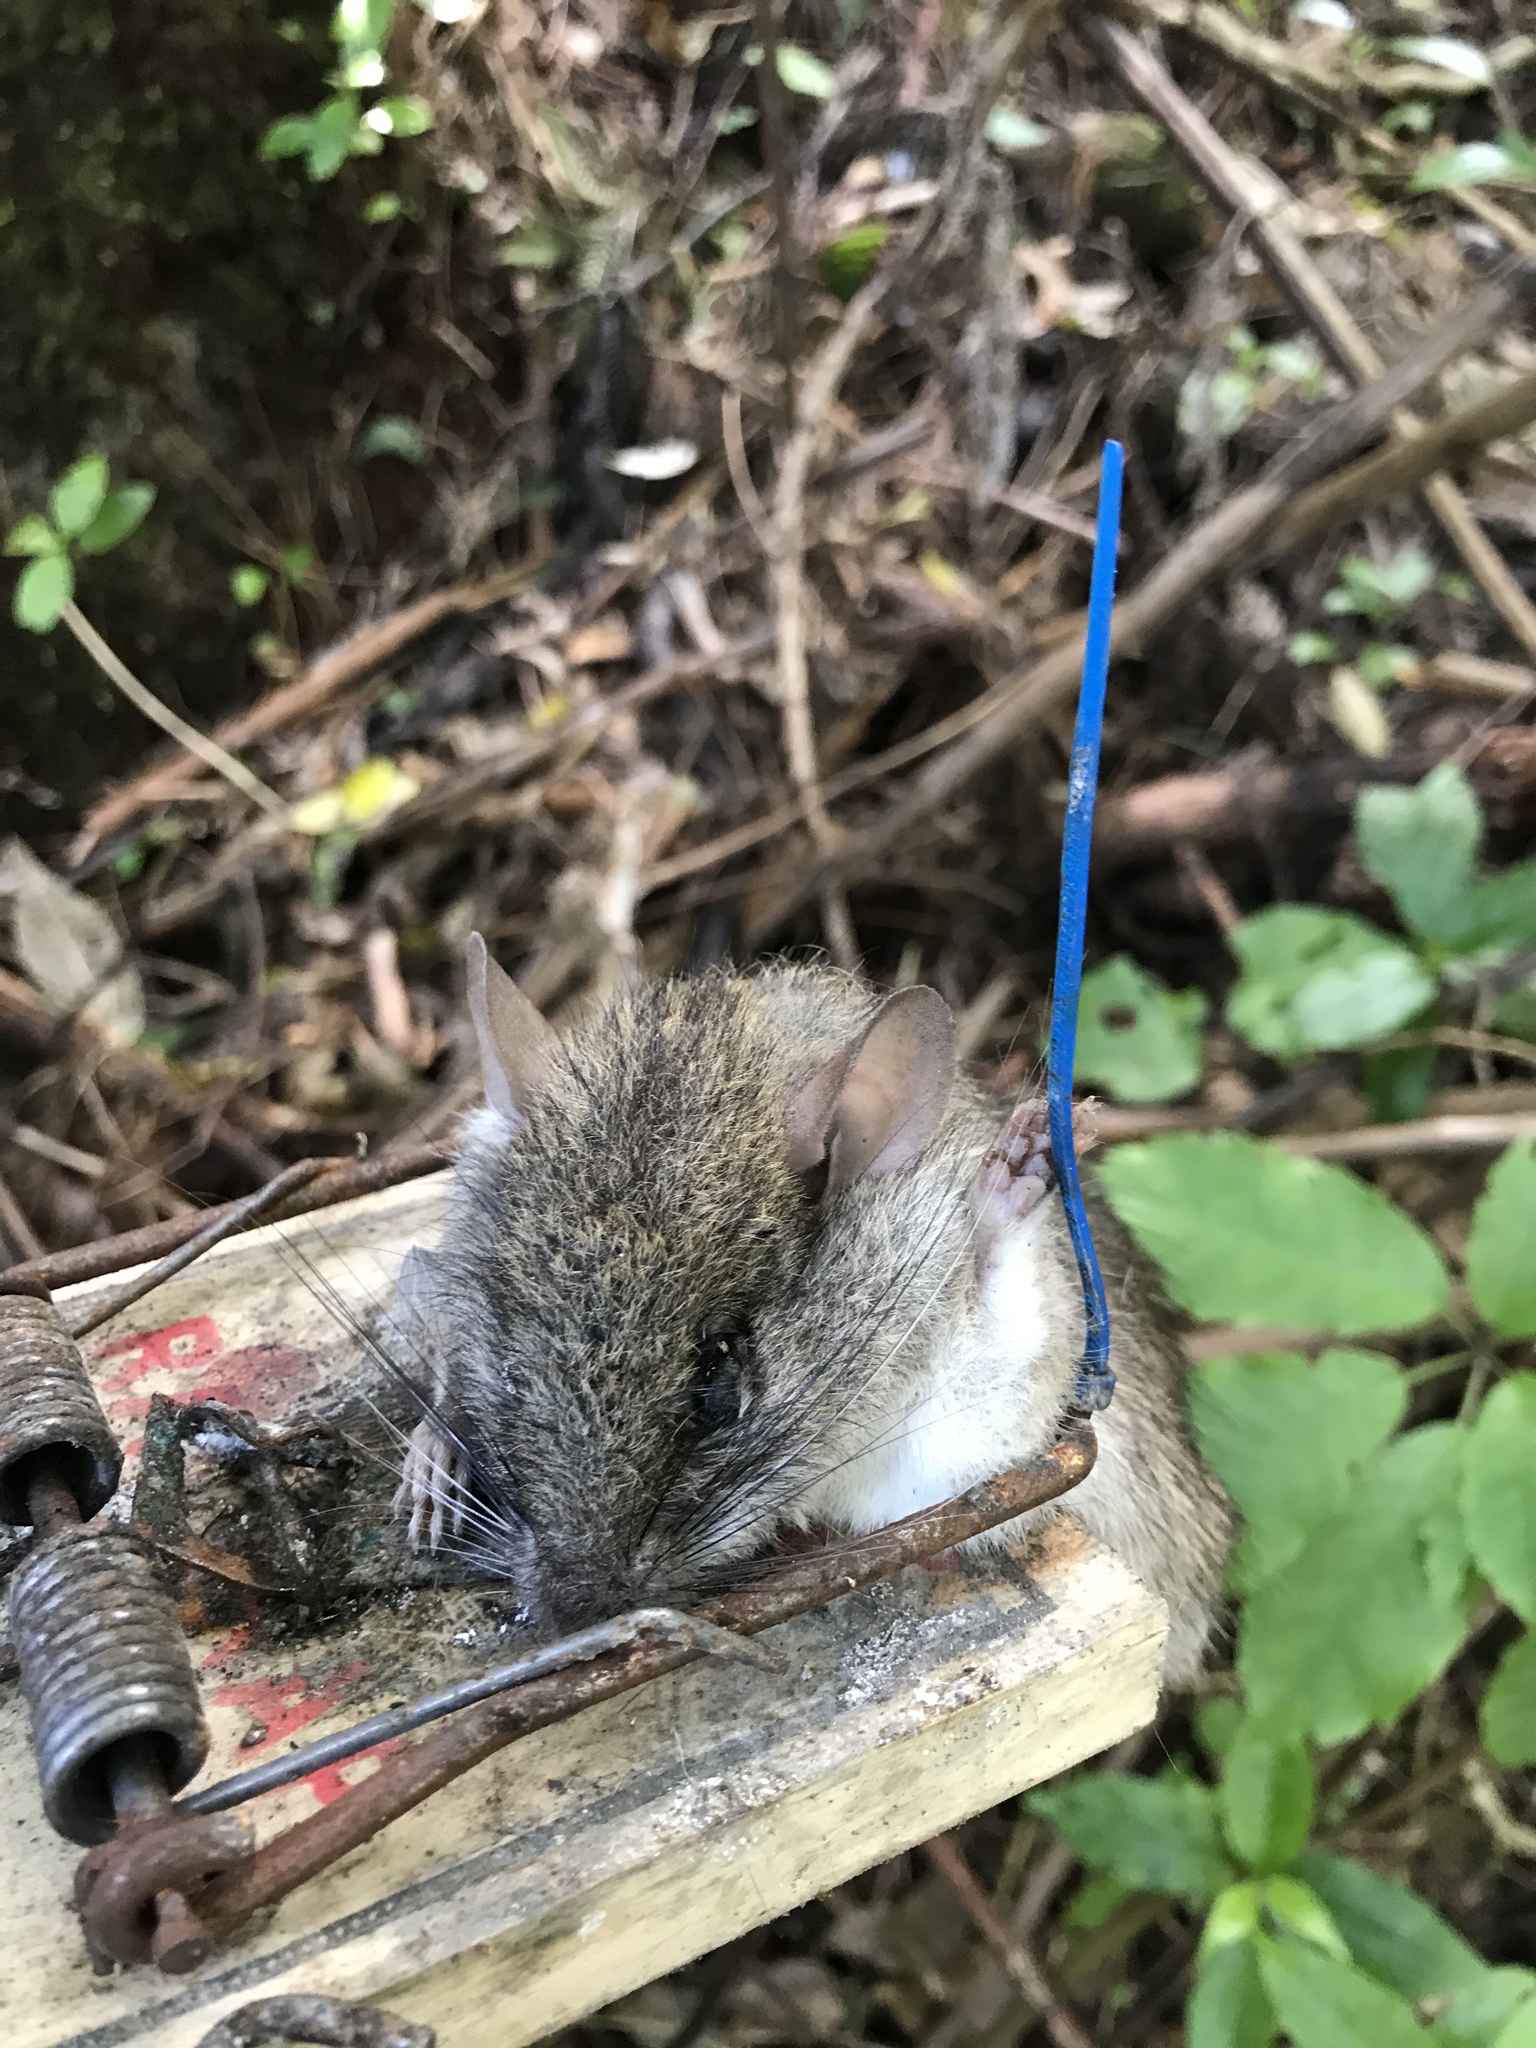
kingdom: Animalia
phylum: Chordata
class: Mammalia
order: Rodentia
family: Muridae
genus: Rattus
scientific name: Rattus rattus
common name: Black rat
